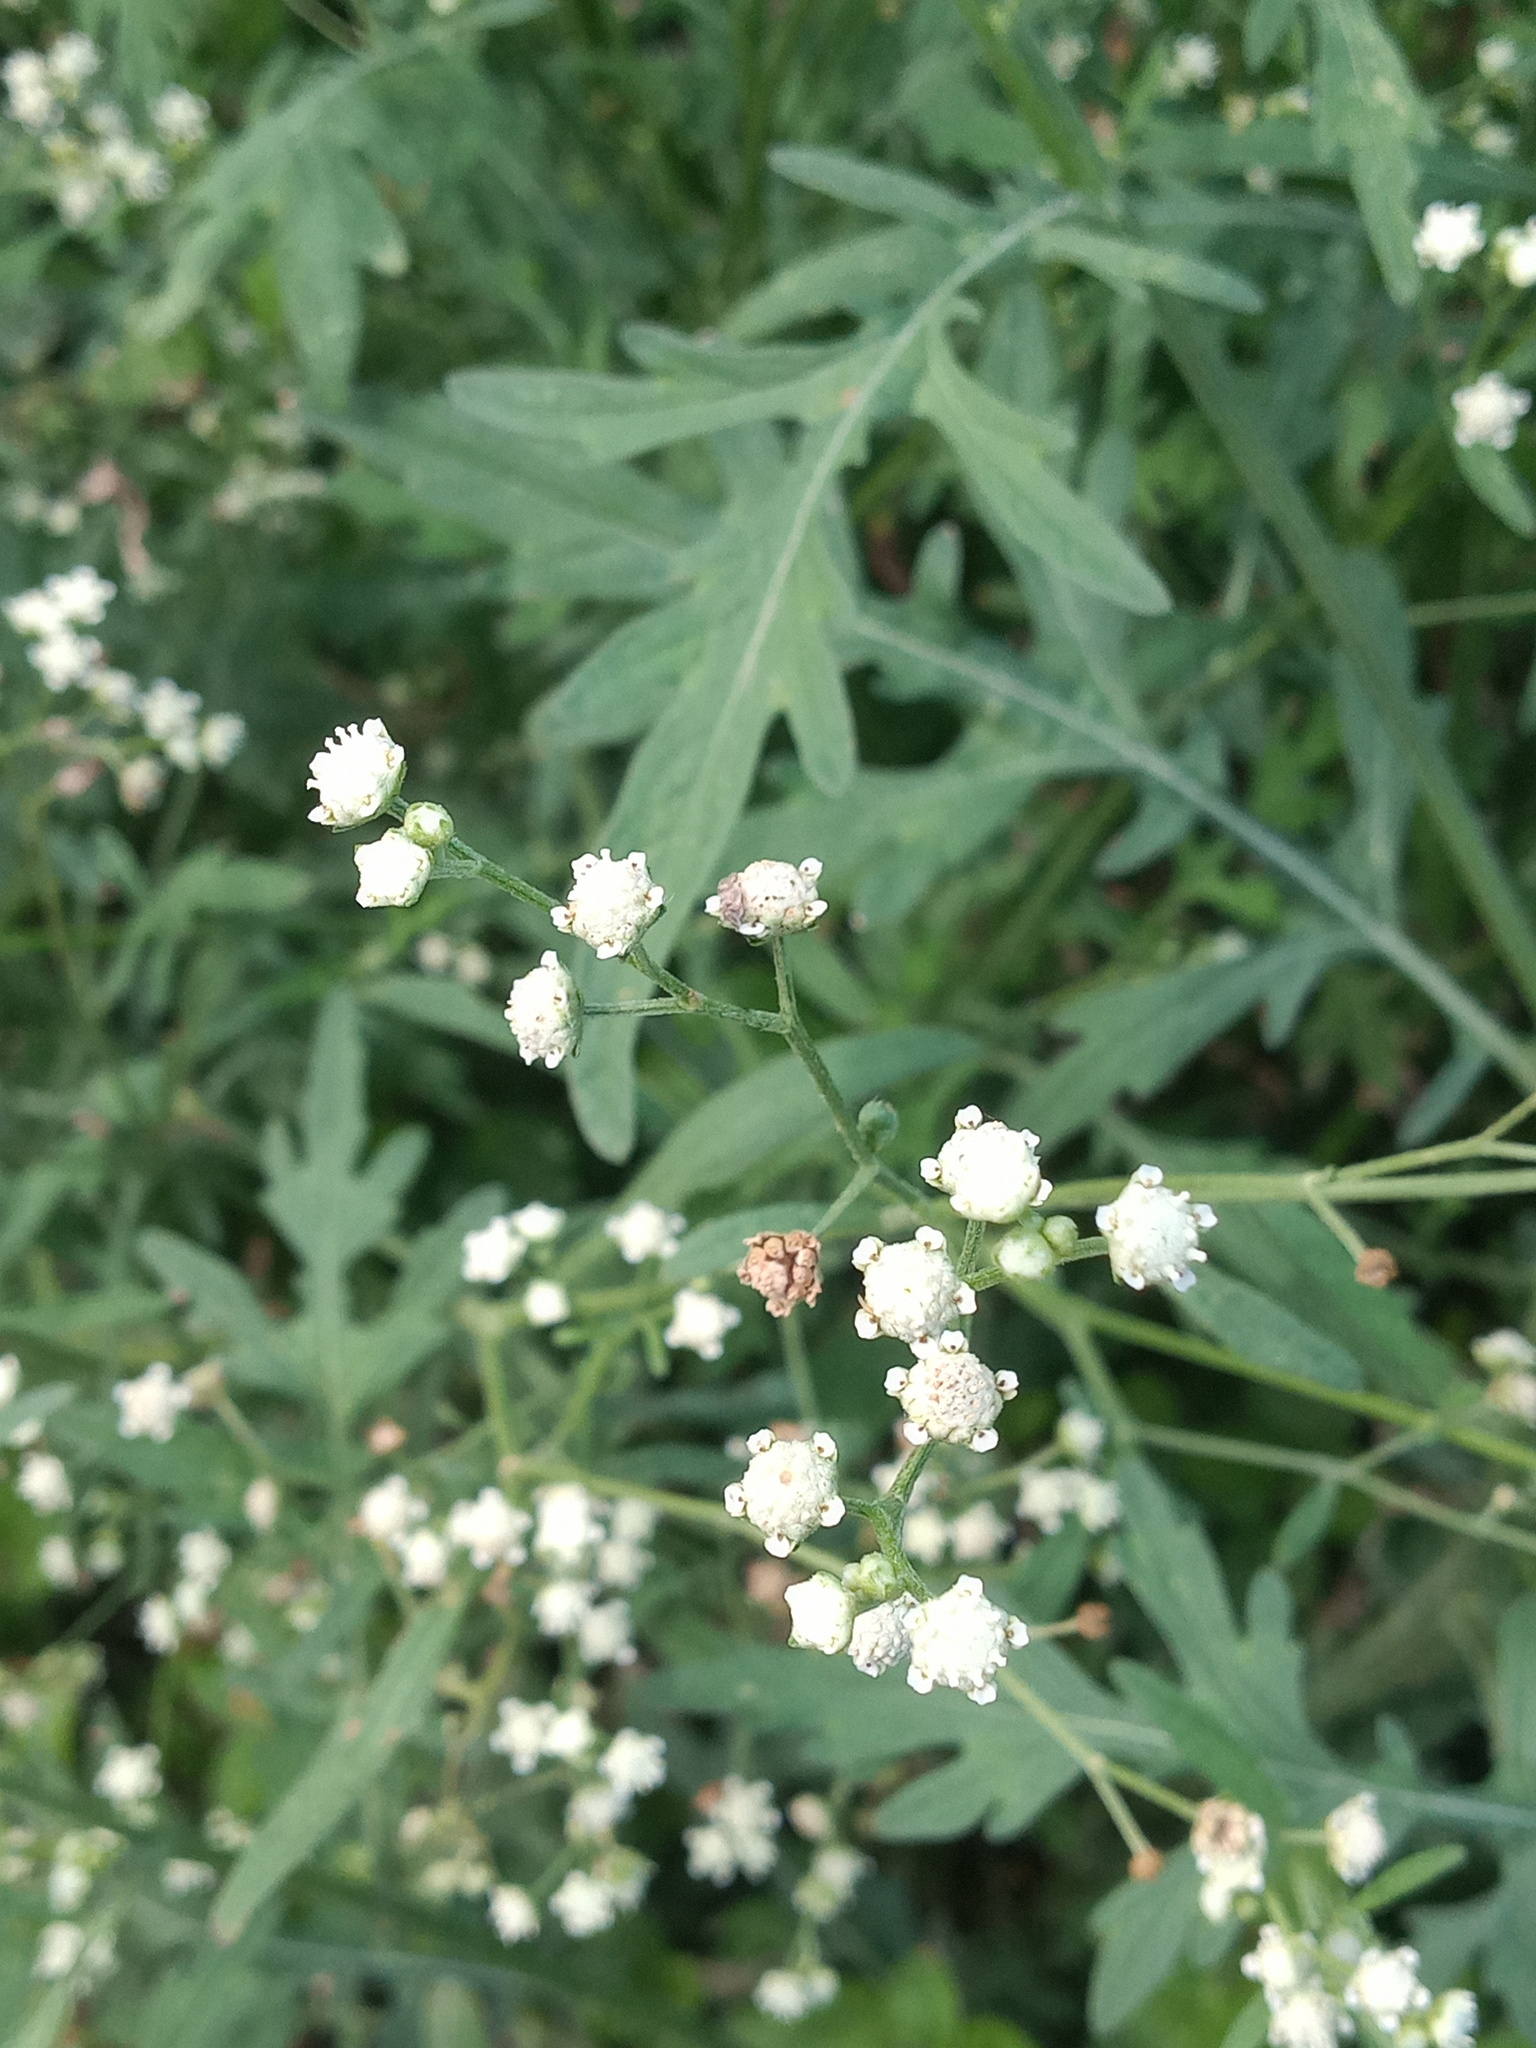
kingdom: Plantae
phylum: Tracheophyta
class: Magnoliopsida
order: Asterales
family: Asteraceae
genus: Parthenium
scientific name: Parthenium bipinnatifidum
